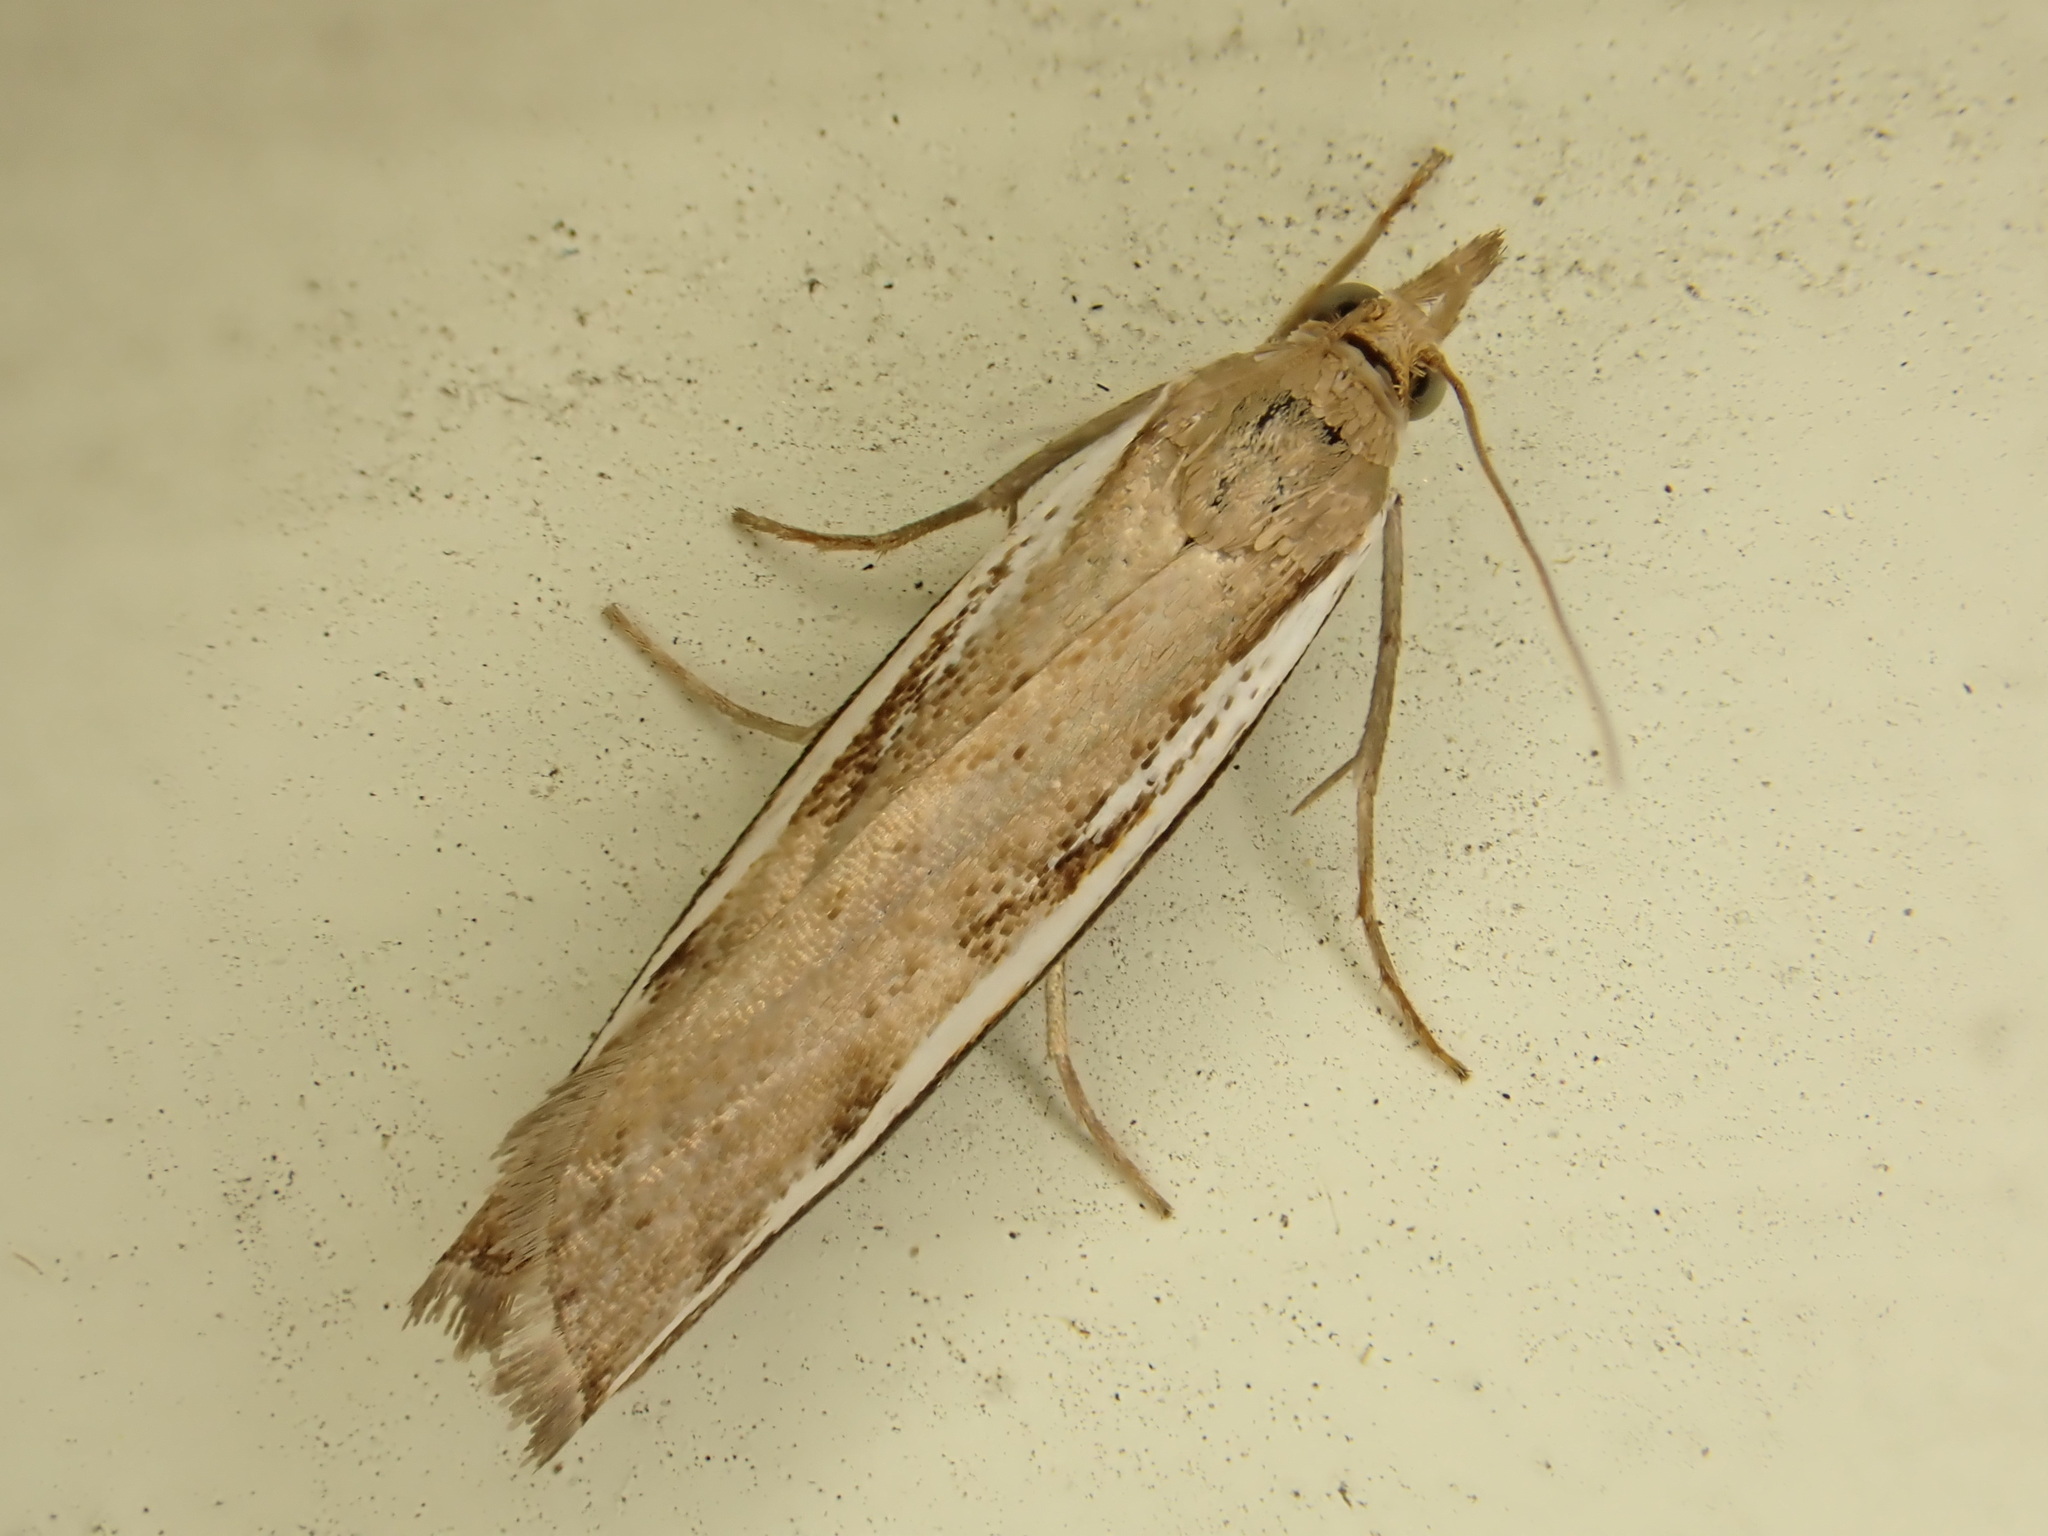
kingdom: Animalia
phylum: Arthropoda
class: Insecta
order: Lepidoptera
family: Crambidae
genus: Orocrambus
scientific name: Orocrambus flexuosellus
